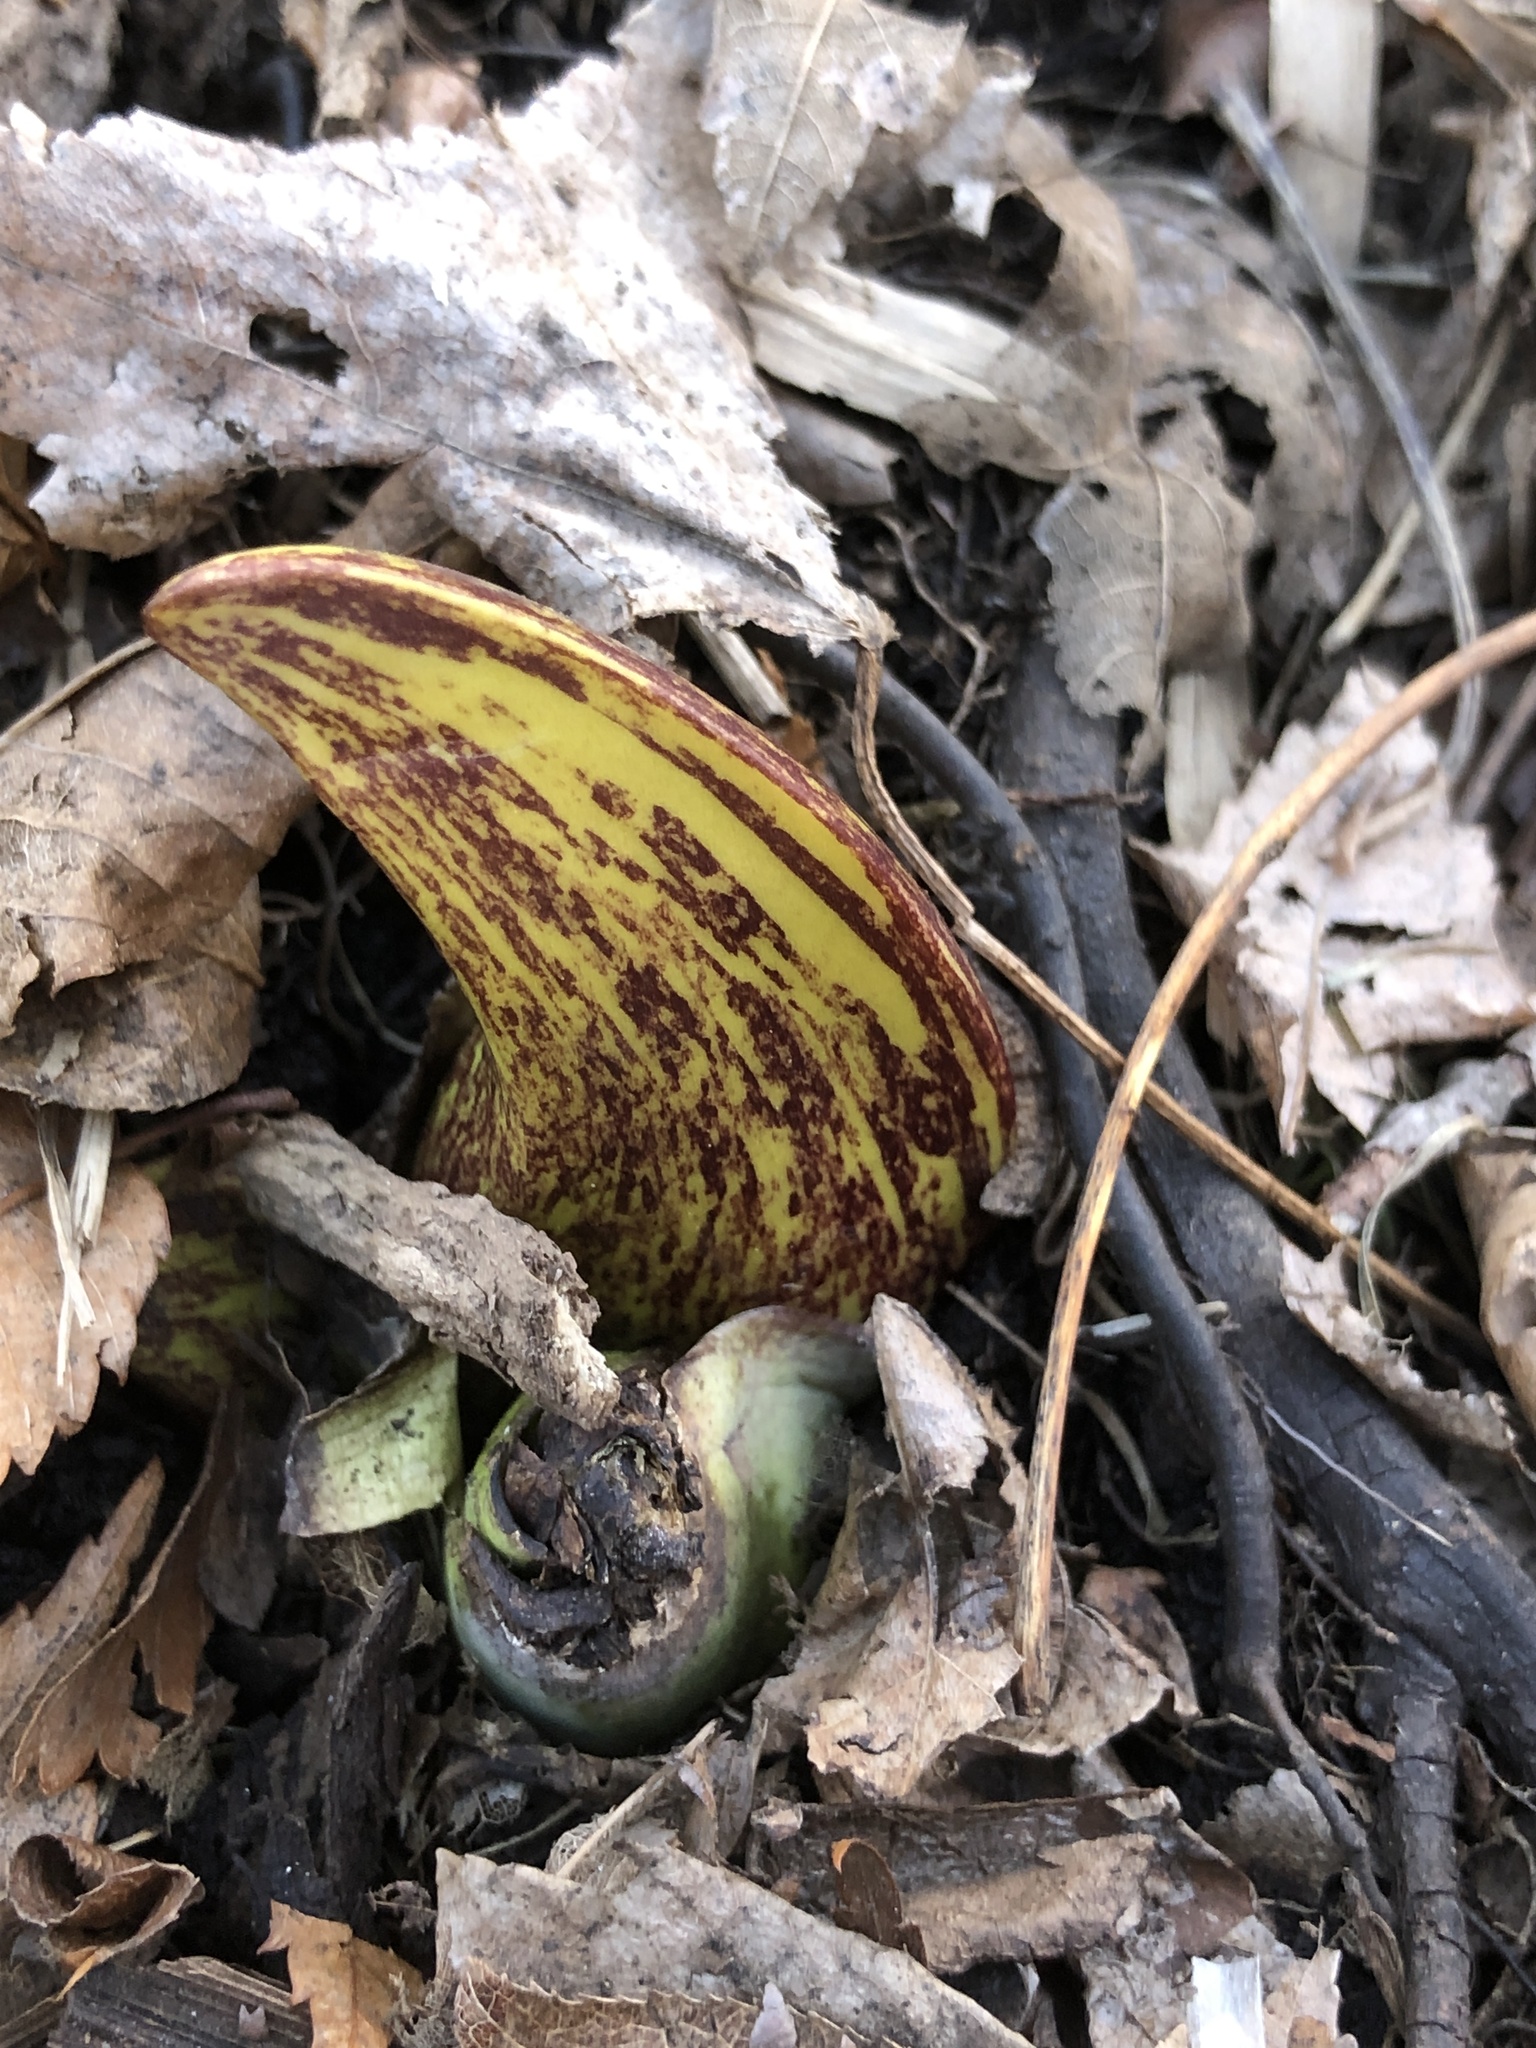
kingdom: Plantae
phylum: Tracheophyta
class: Liliopsida
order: Alismatales
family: Araceae
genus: Symplocarpus
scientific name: Symplocarpus foetidus
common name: Eastern skunk cabbage
